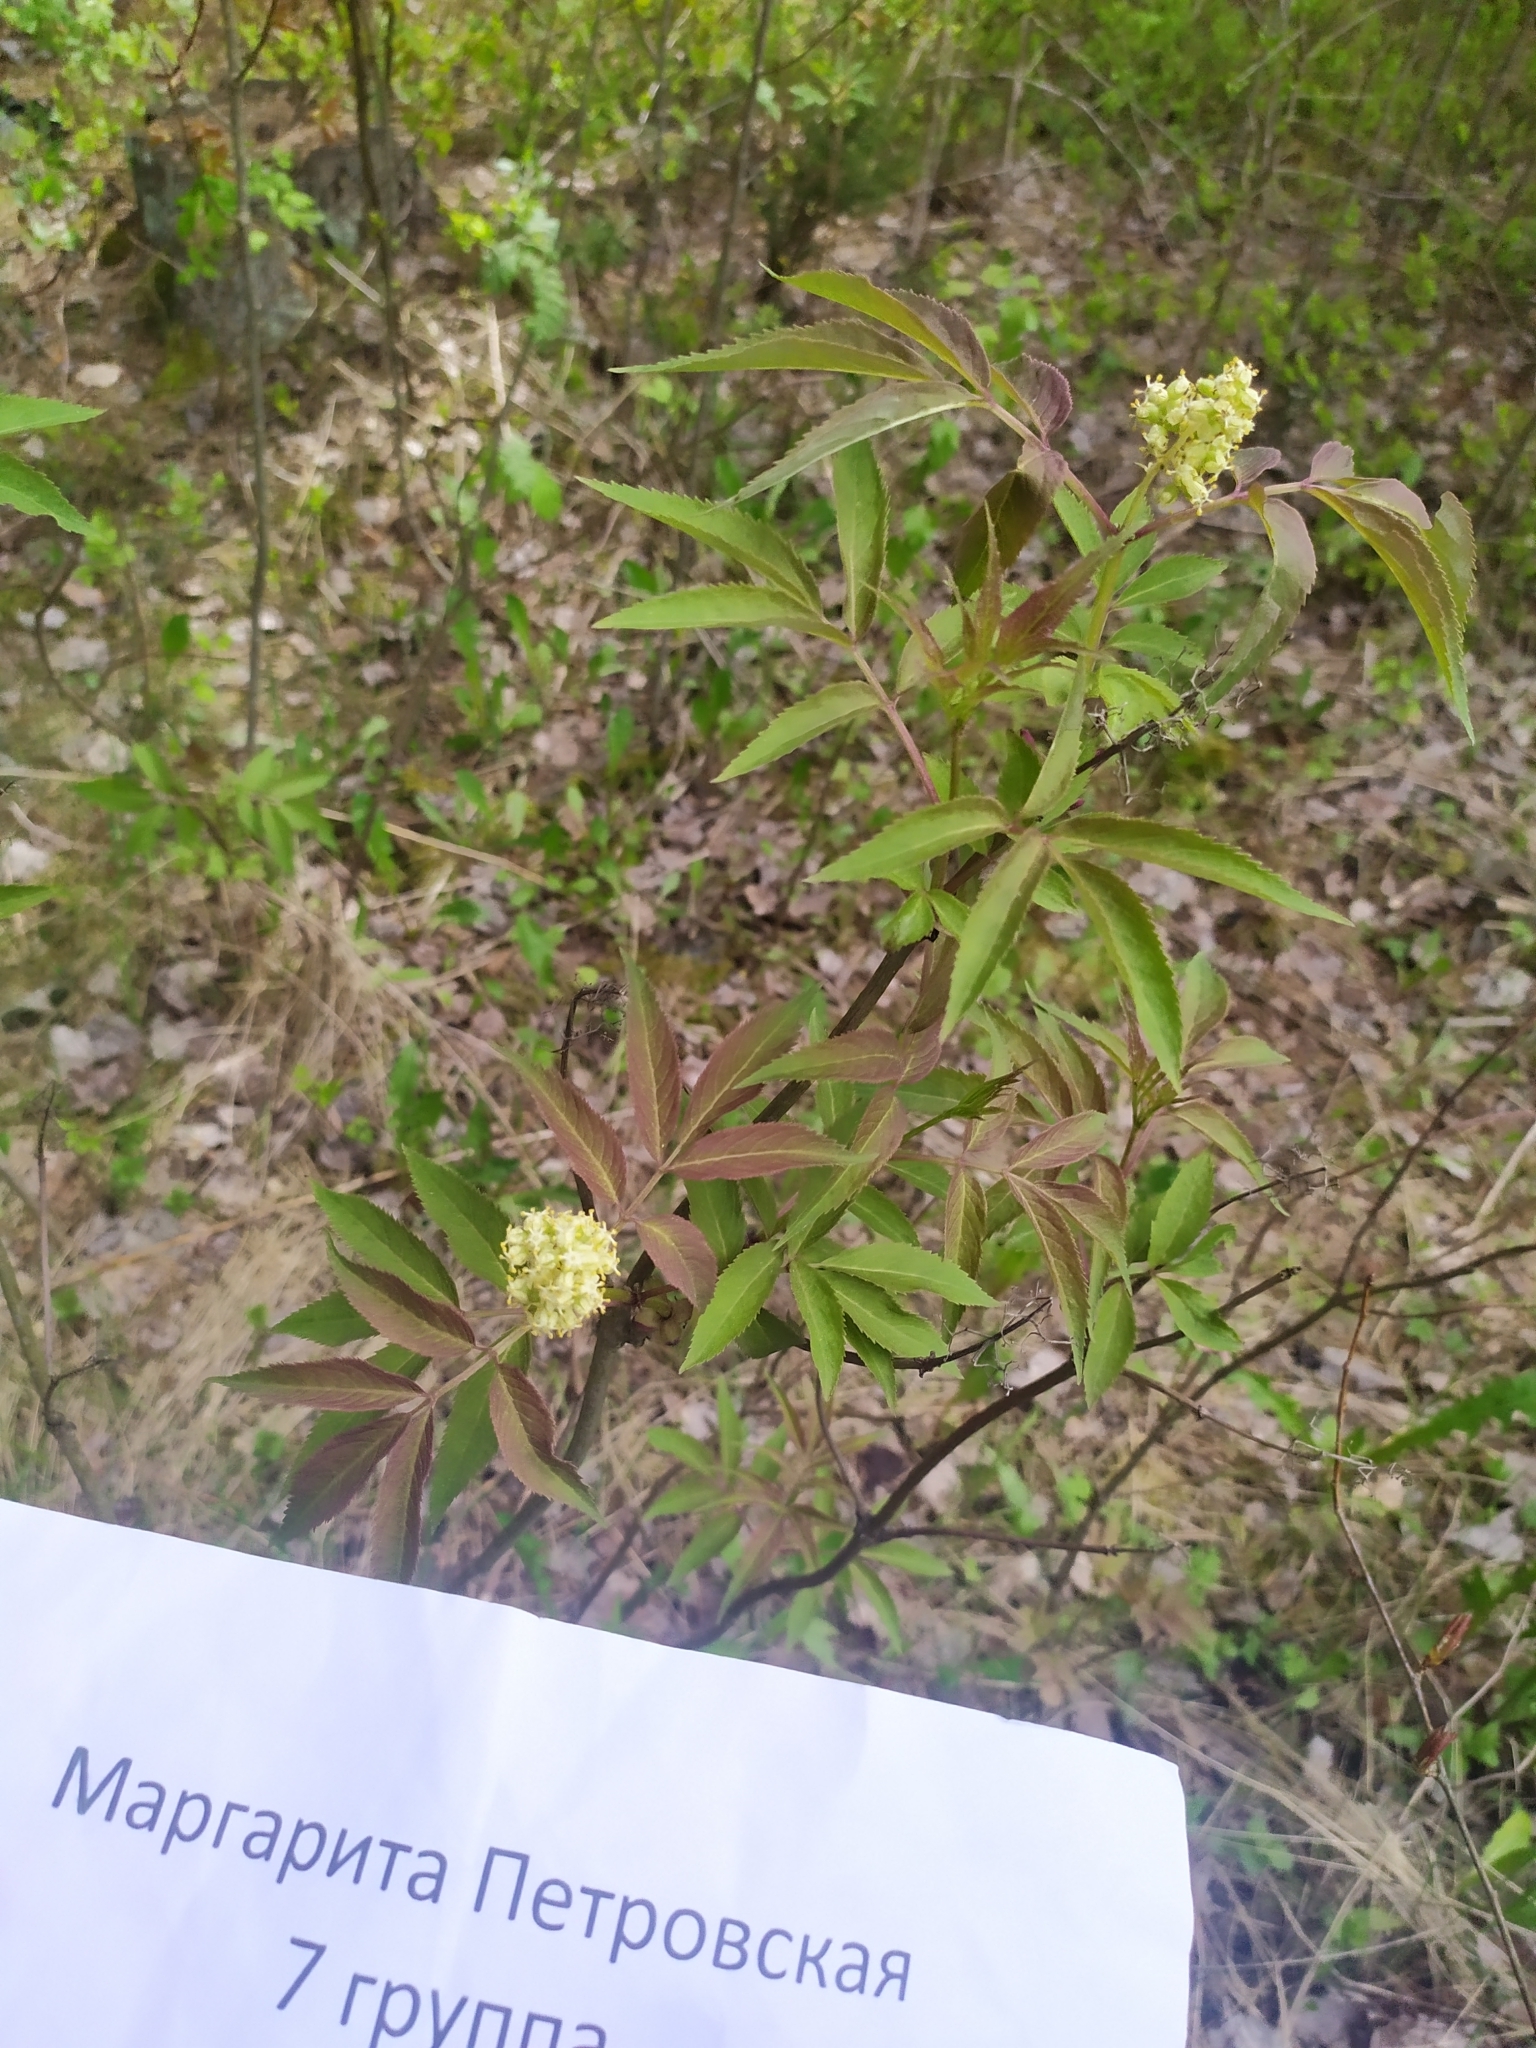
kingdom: Plantae
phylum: Tracheophyta
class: Magnoliopsida
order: Dipsacales
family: Viburnaceae
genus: Sambucus
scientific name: Sambucus racemosa
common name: Red-berried elder
